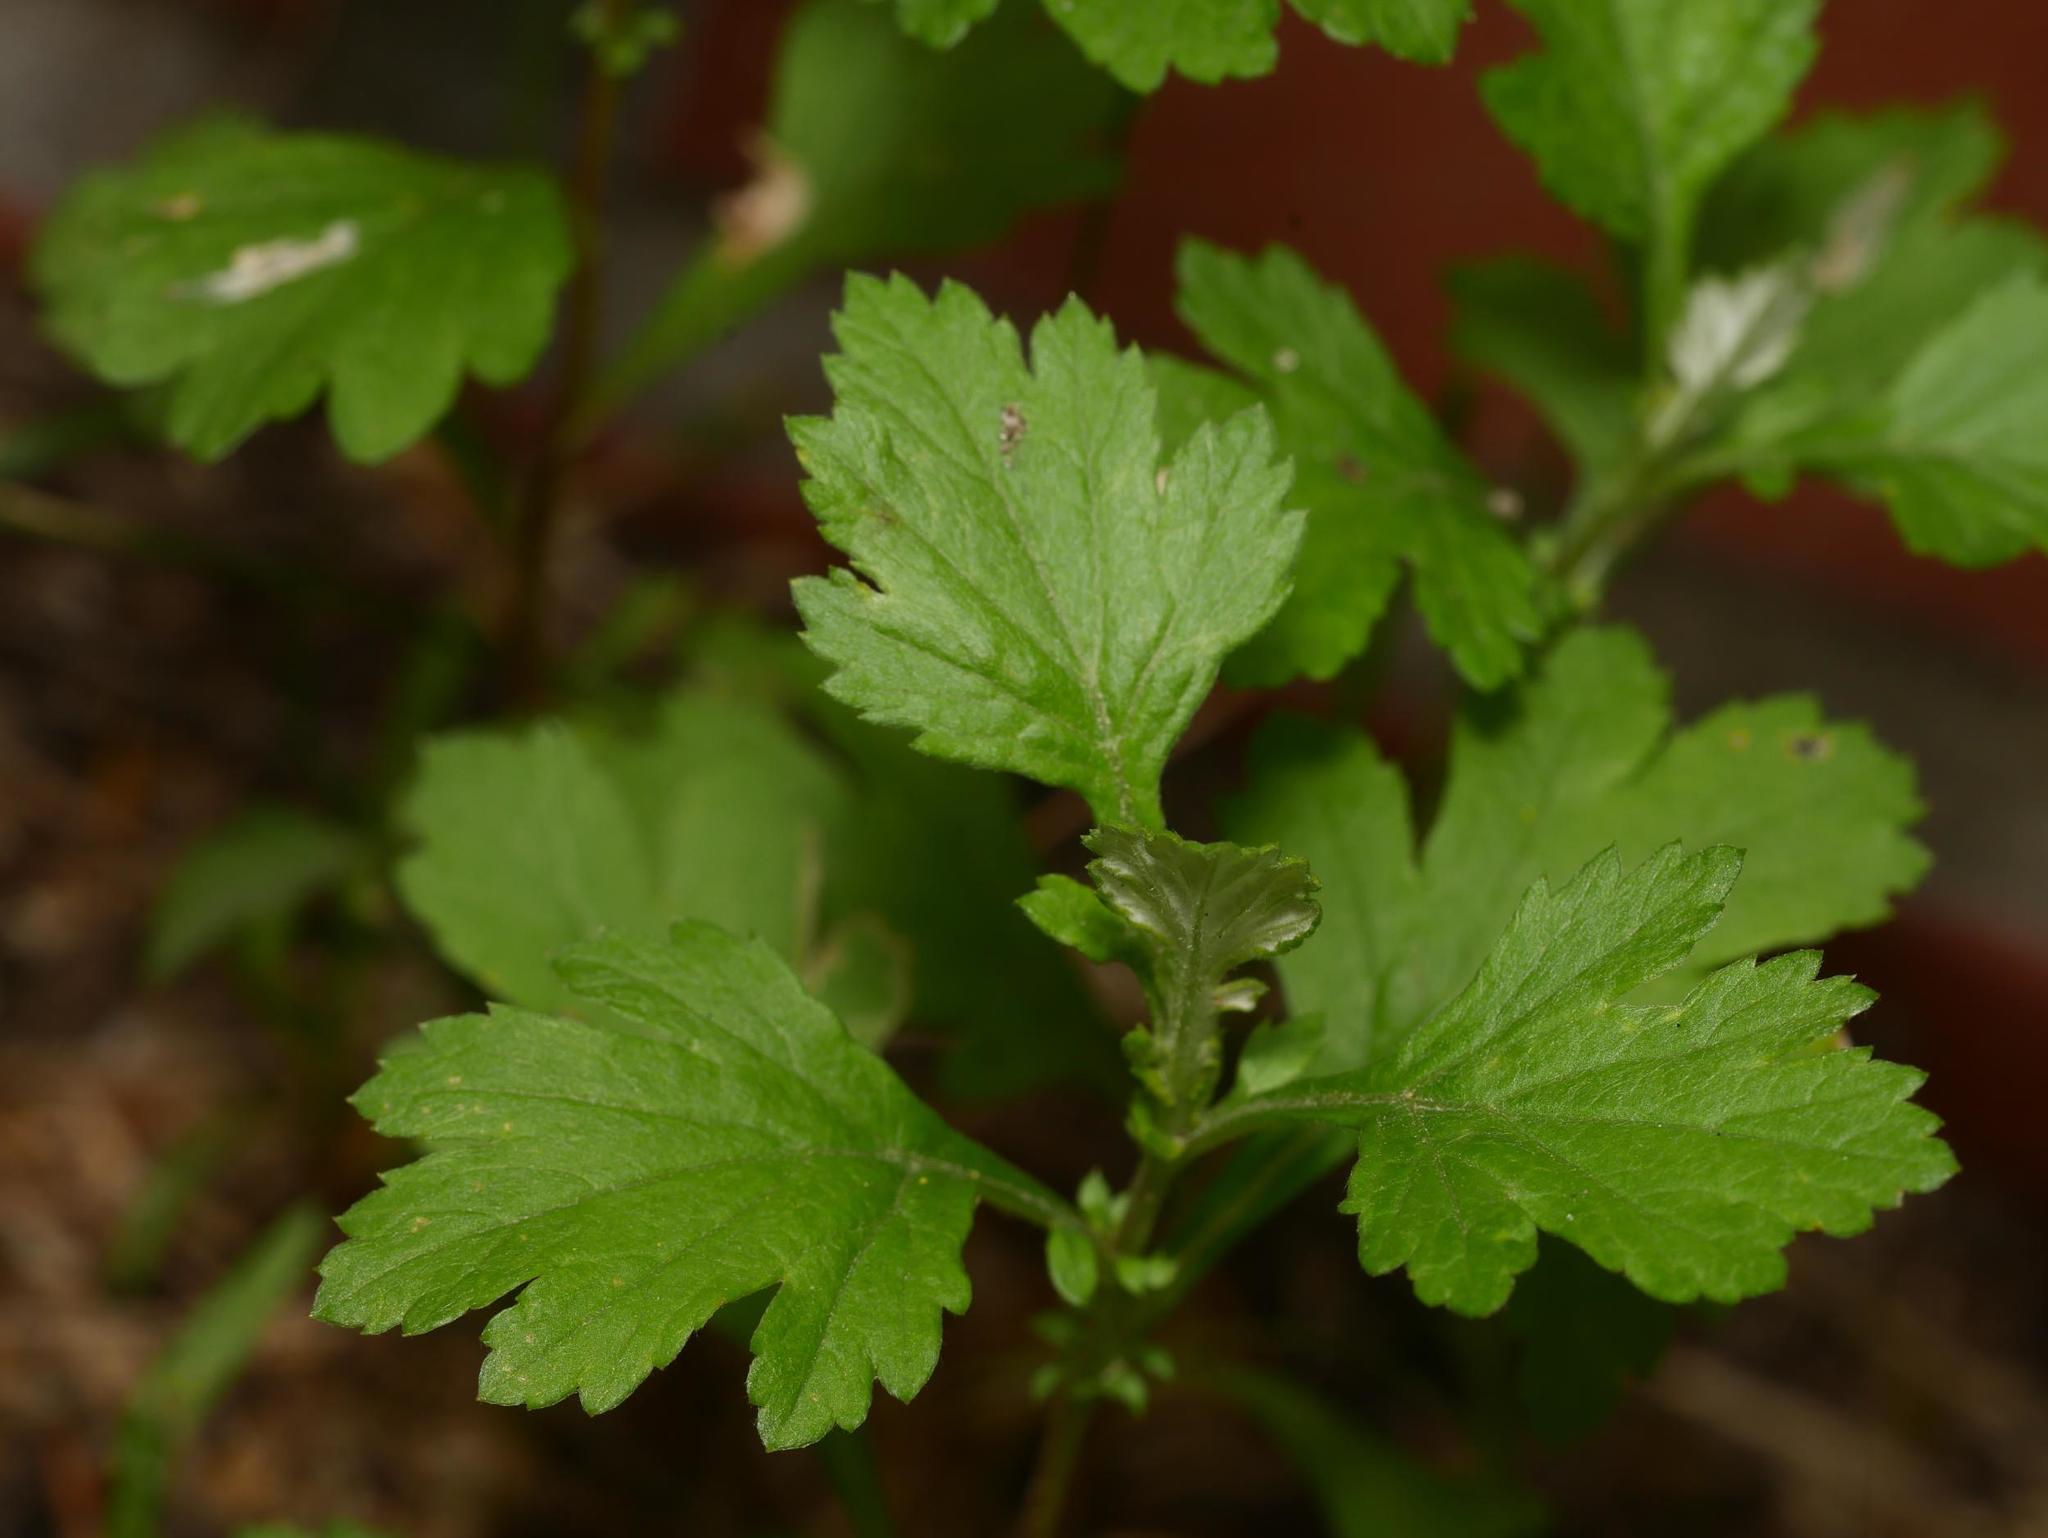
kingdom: Plantae
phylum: Tracheophyta
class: Magnoliopsida
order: Asterales
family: Asteraceae
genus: Artemisia
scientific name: Artemisia vulgaris
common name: Mugwort
